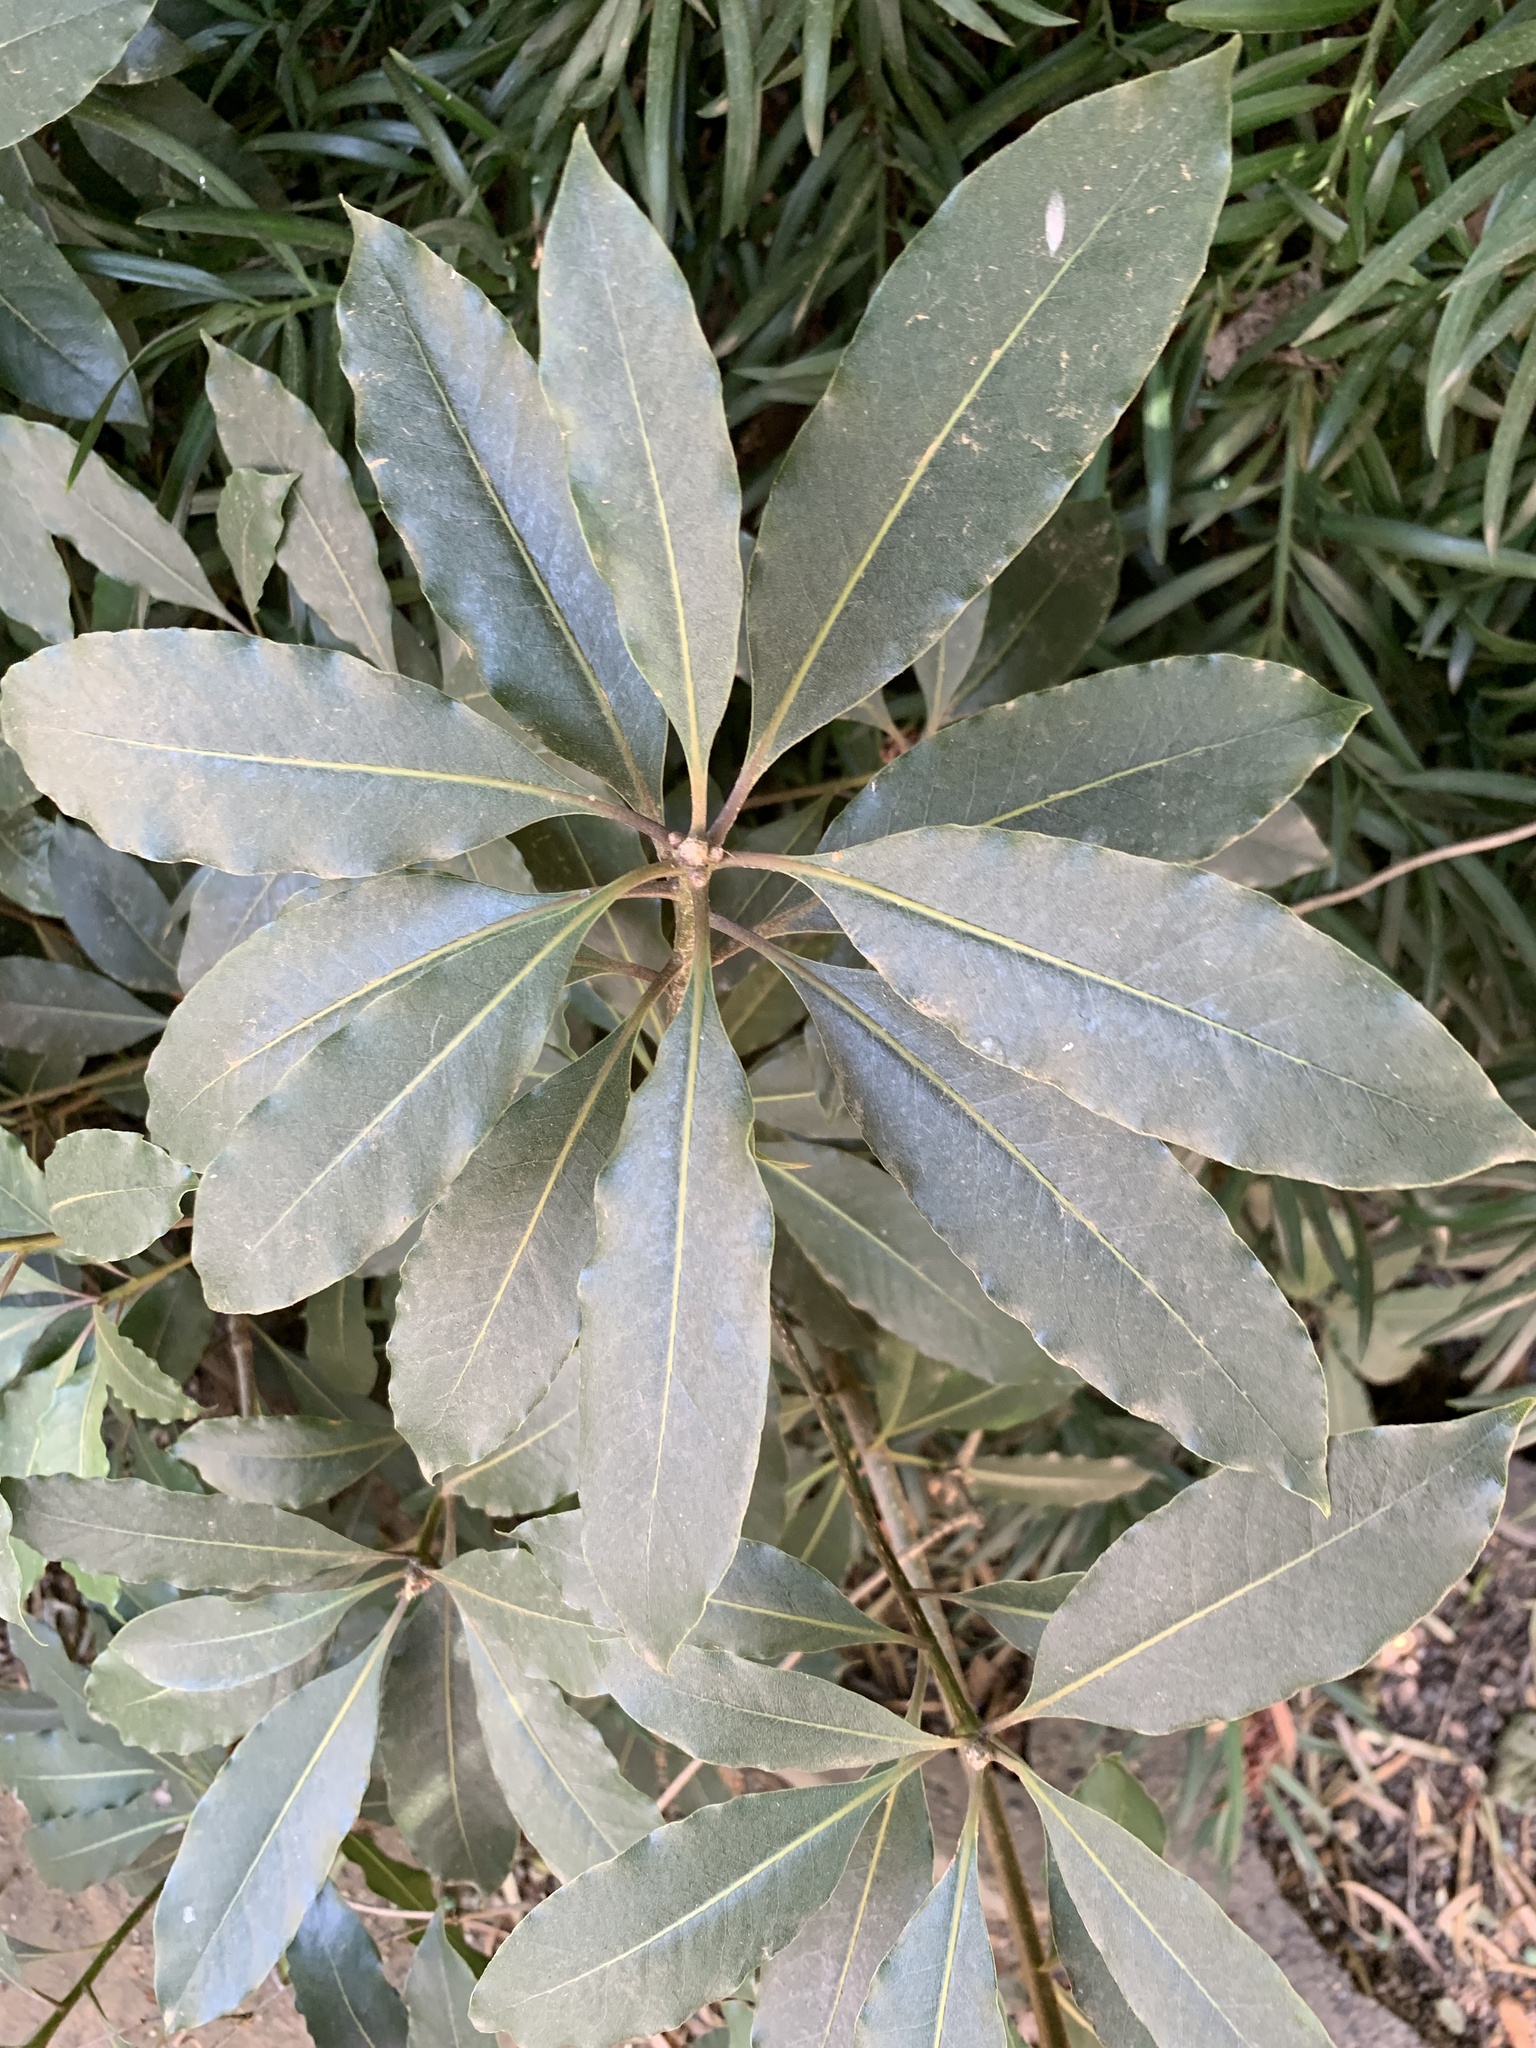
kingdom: Plantae
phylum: Tracheophyta
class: Magnoliopsida
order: Apiales
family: Pittosporaceae
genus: Pittosporum
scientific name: Pittosporum undulatum
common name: Australian cheesewood
